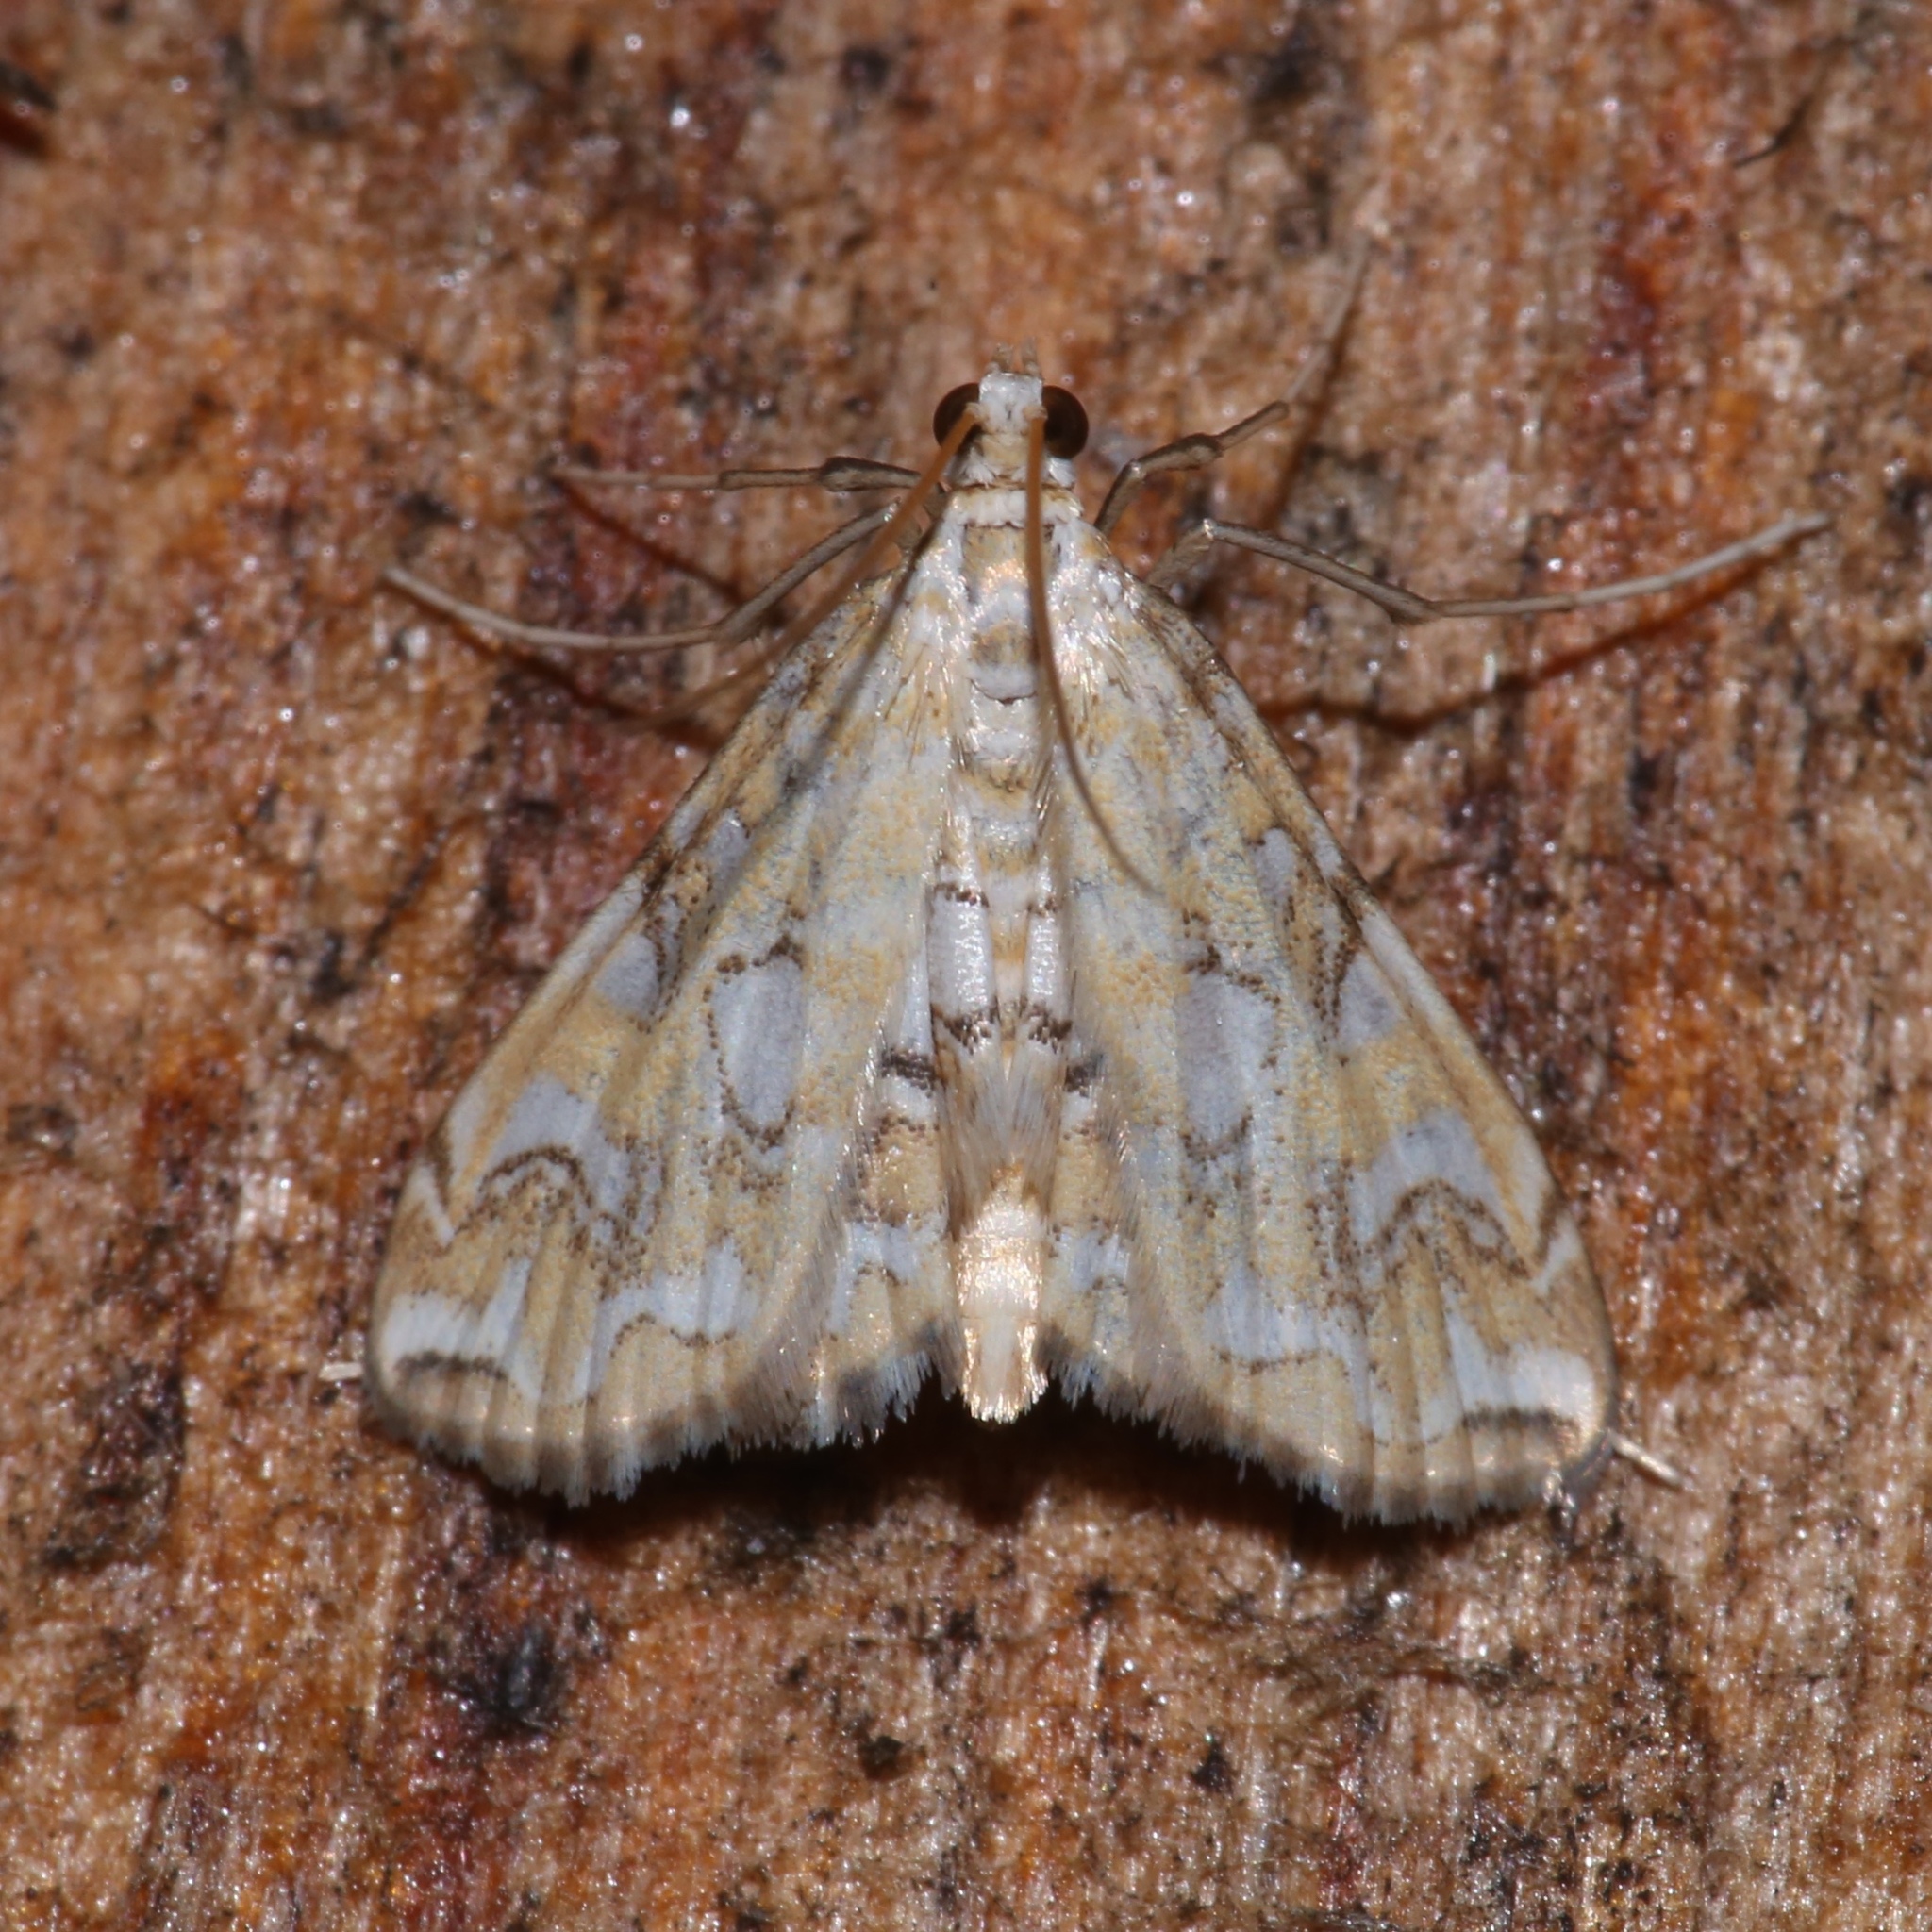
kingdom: Animalia
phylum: Arthropoda
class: Insecta
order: Lepidoptera
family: Crambidae
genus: Elophila
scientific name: Elophila icciusalis
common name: Pondside pyralid moth
